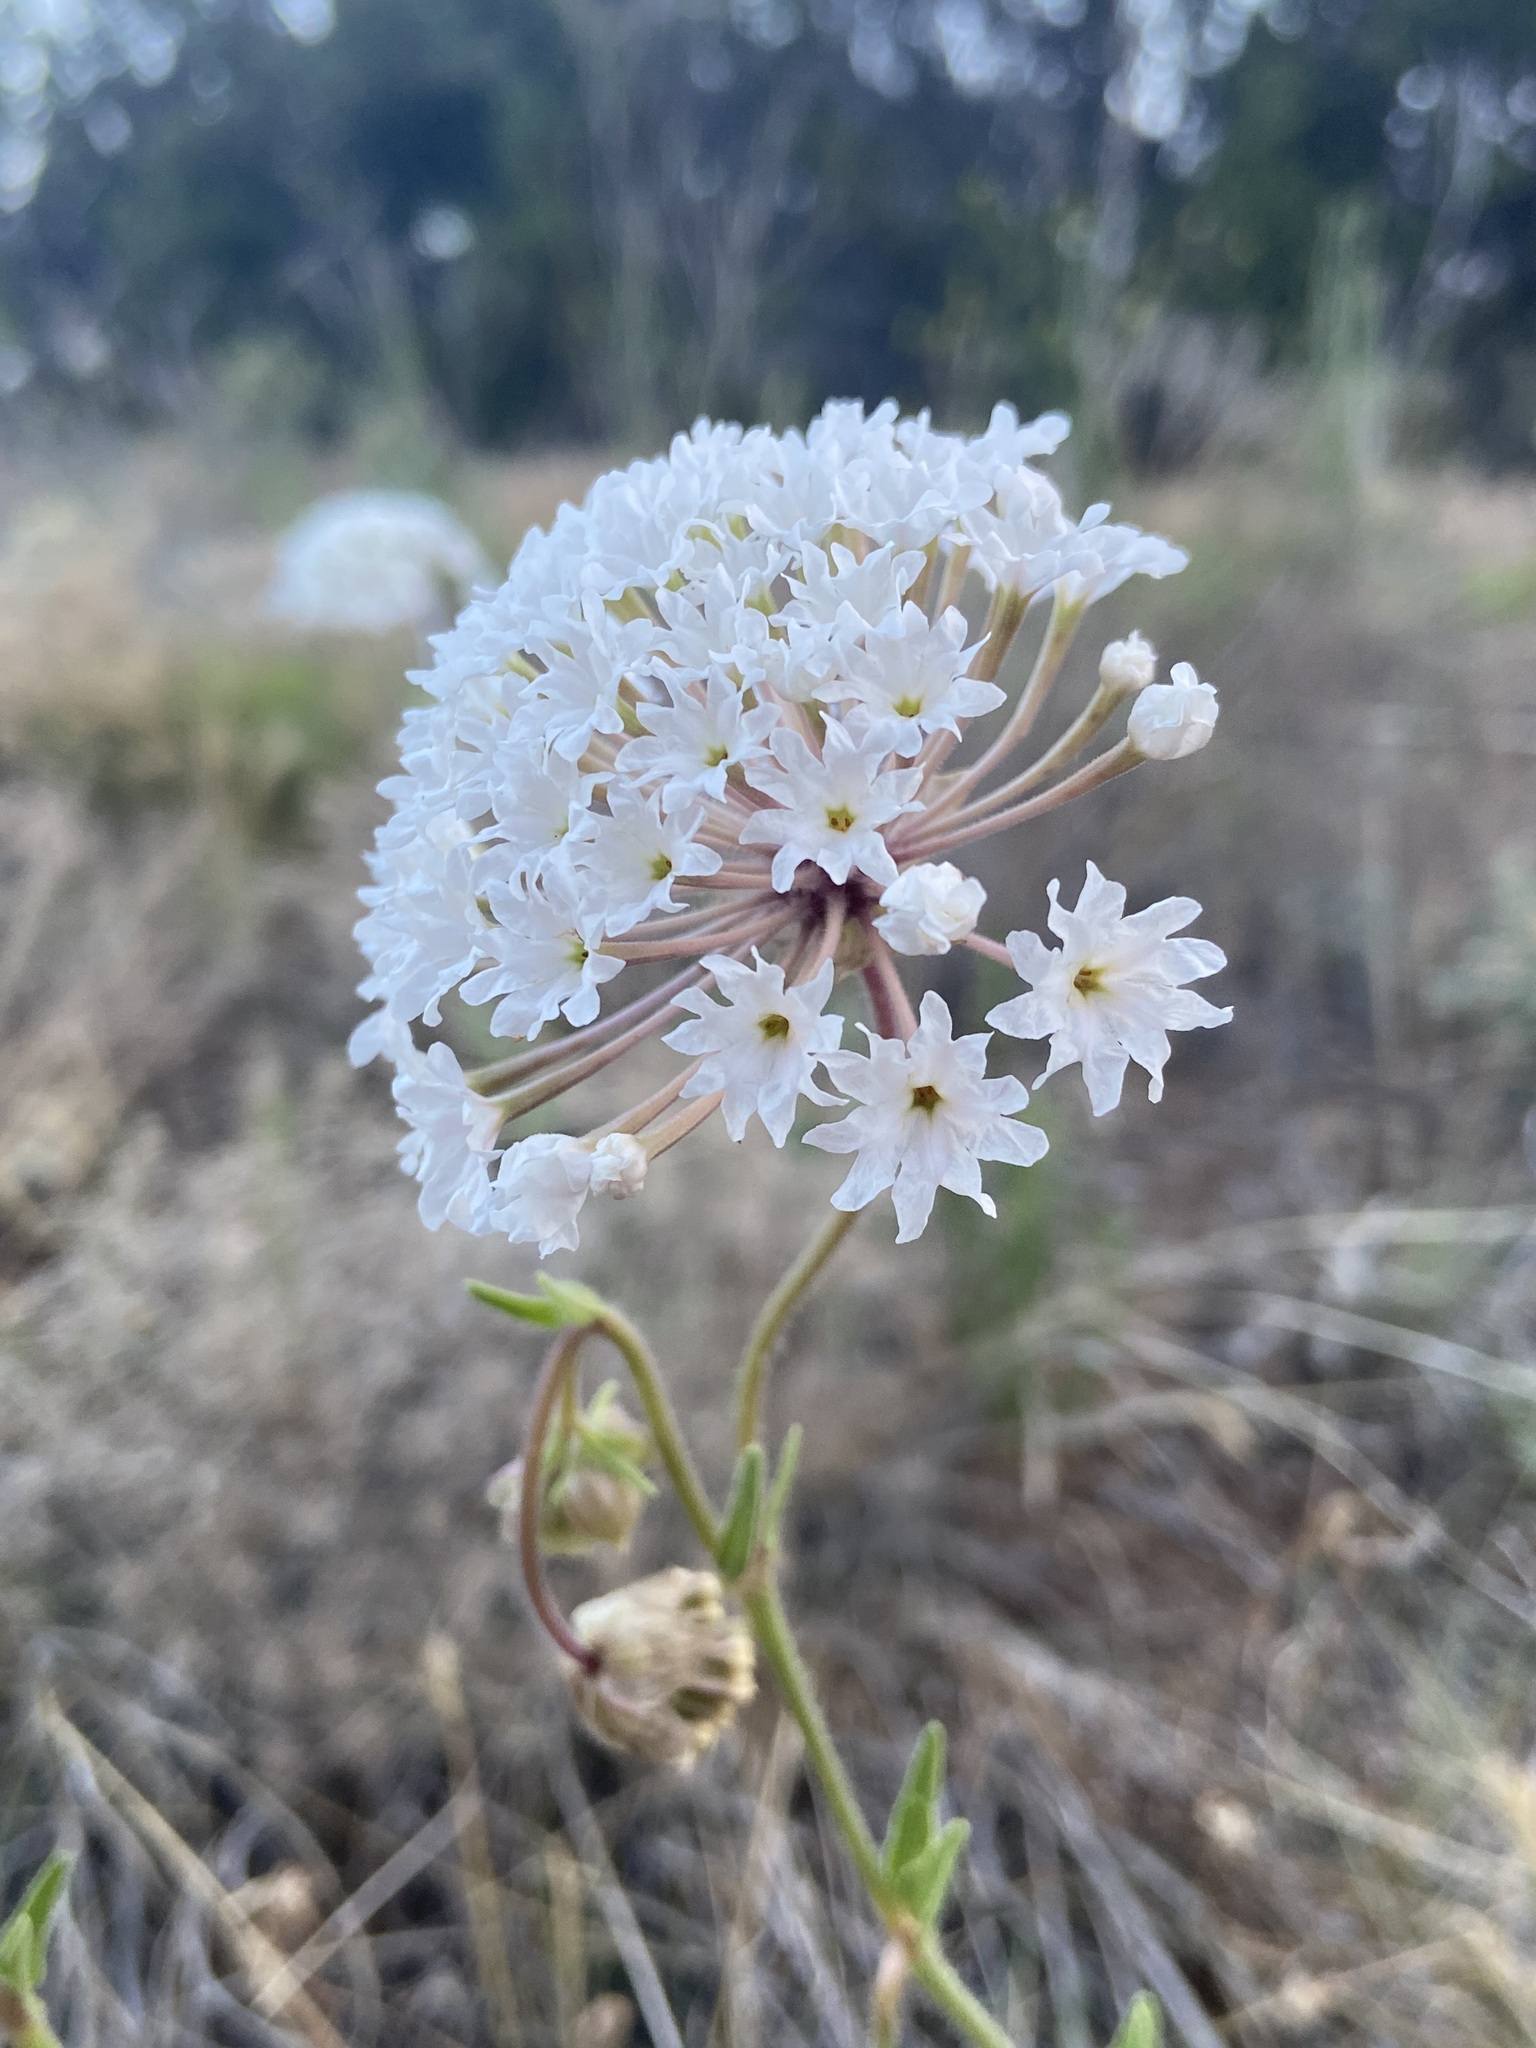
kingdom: Plantae
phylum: Tracheophyta
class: Magnoliopsida
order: Caryophyllales
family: Nyctaginaceae
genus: Abronia
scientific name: Abronia fragrans
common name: Fragrant sand-verbena
